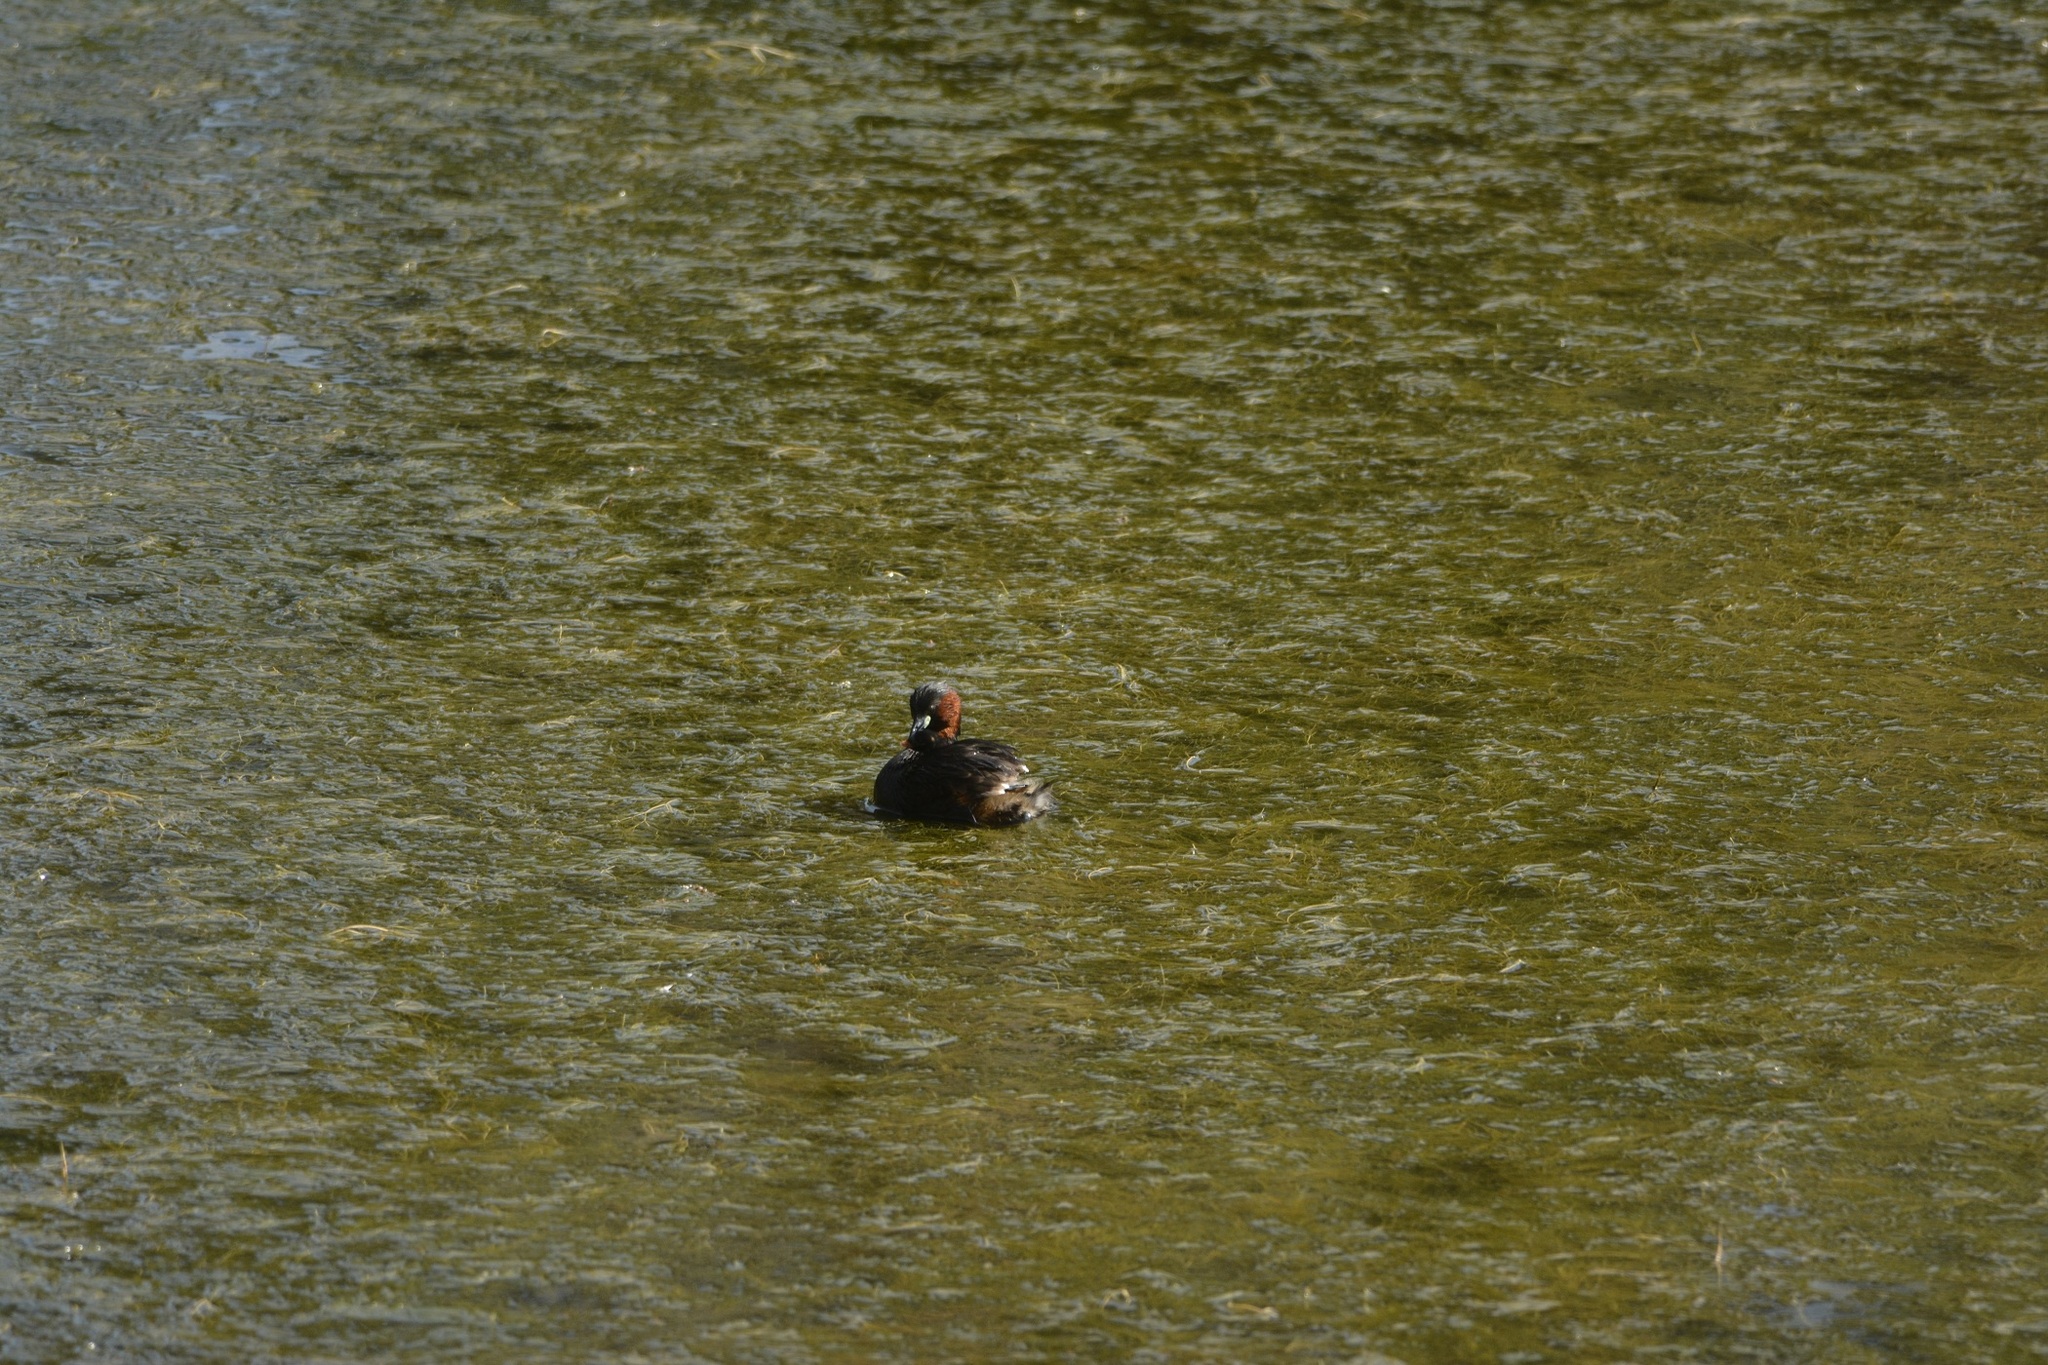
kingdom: Animalia
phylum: Chordata
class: Aves
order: Podicipediformes
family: Podicipedidae
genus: Tachybaptus
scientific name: Tachybaptus ruficollis
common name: Little grebe
